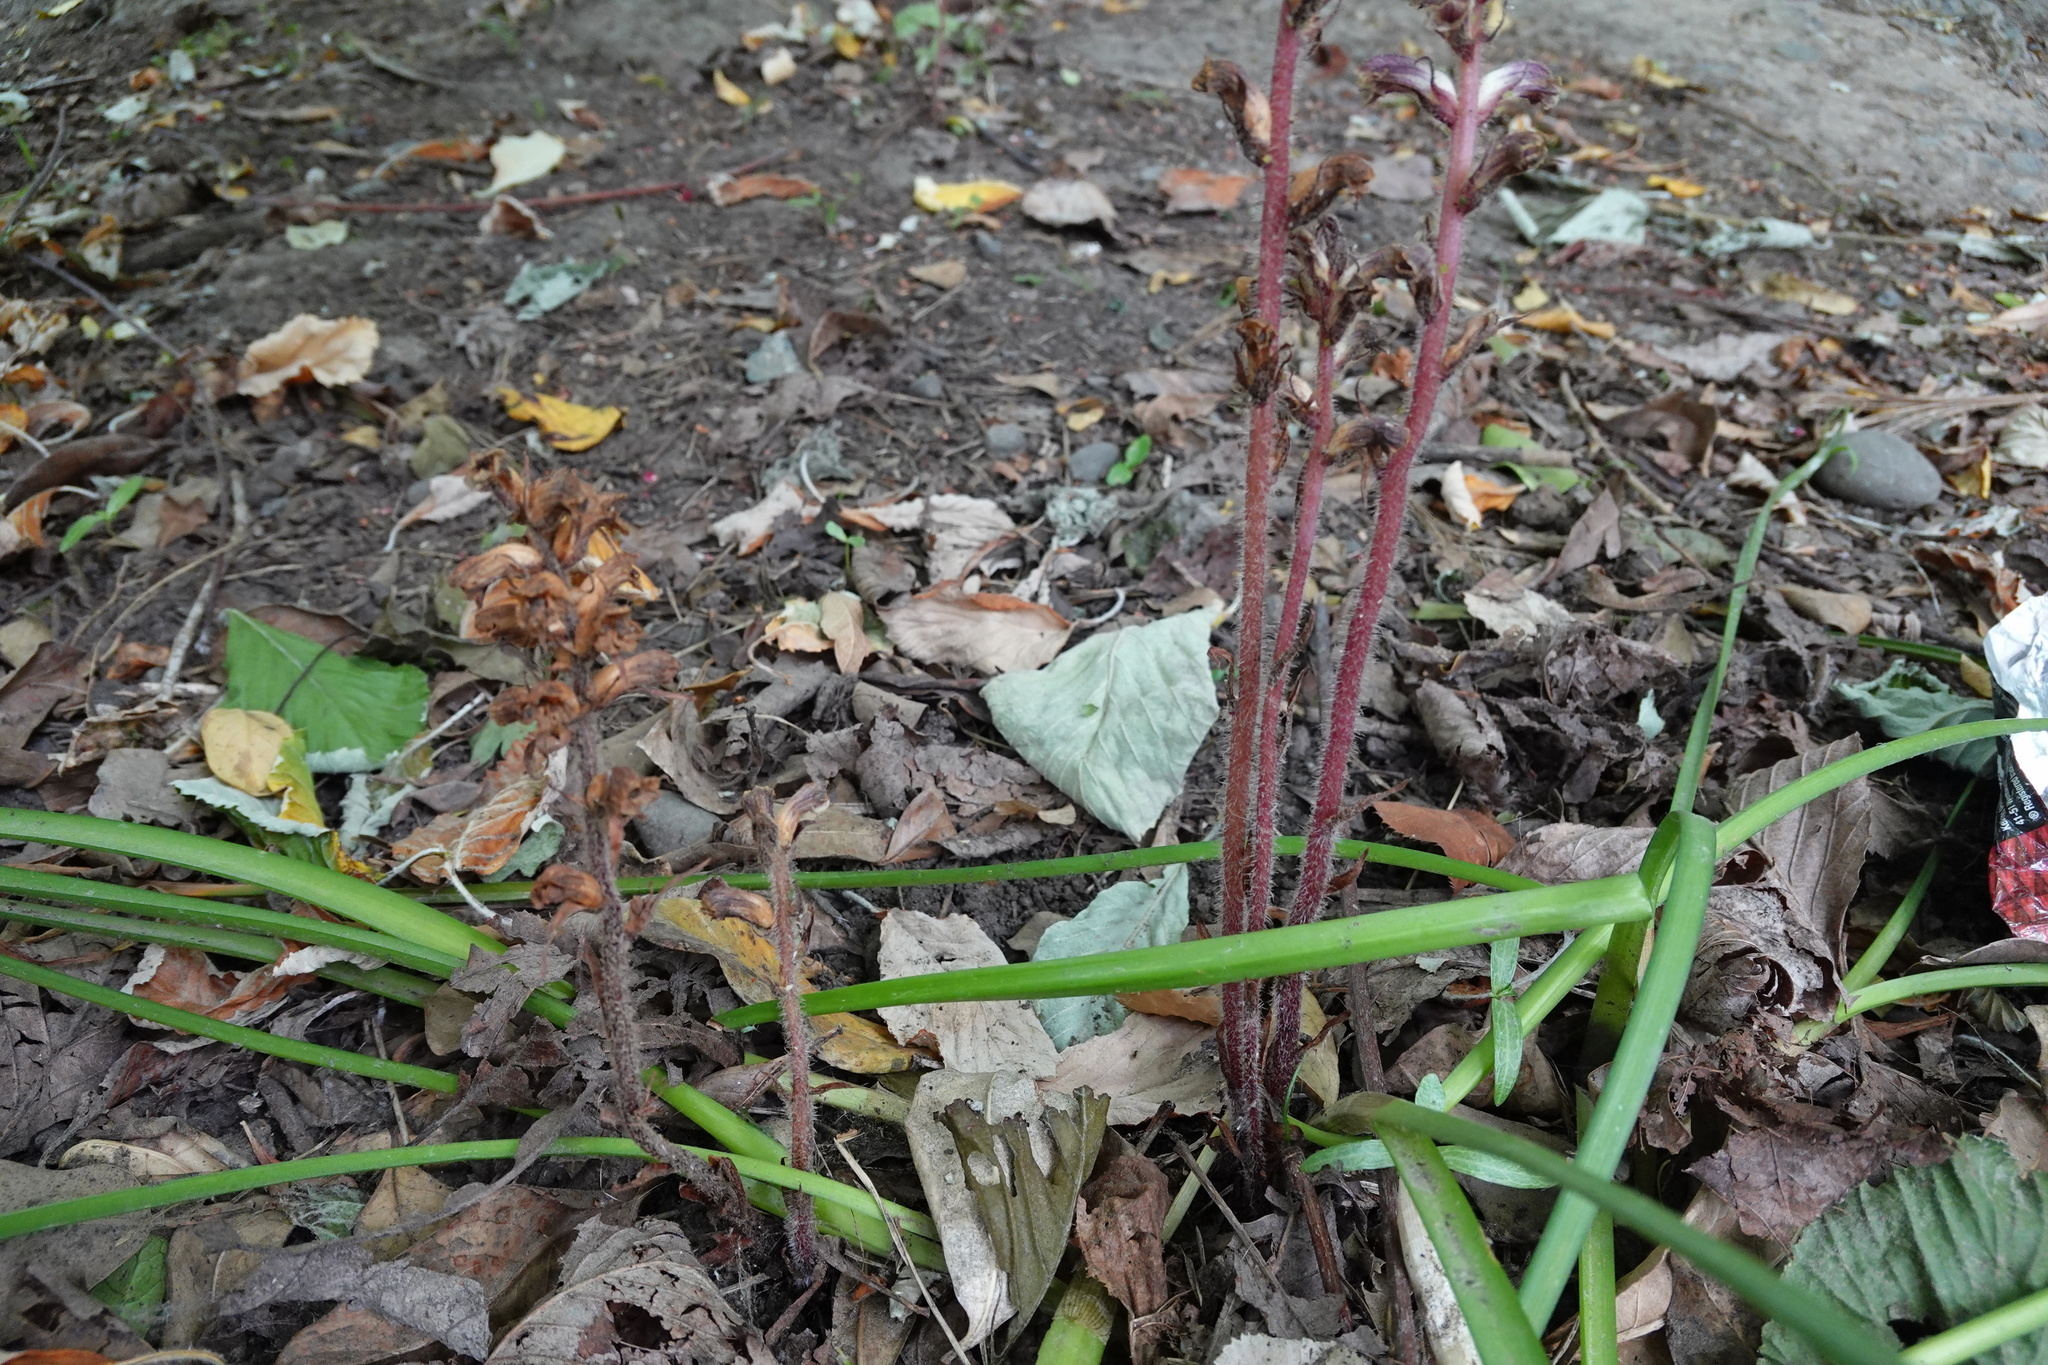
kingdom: Plantae
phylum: Tracheophyta
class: Magnoliopsida
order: Lamiales
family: Orobanchaceae
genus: Orobanche
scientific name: Orobanche minor
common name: Common broomrape
